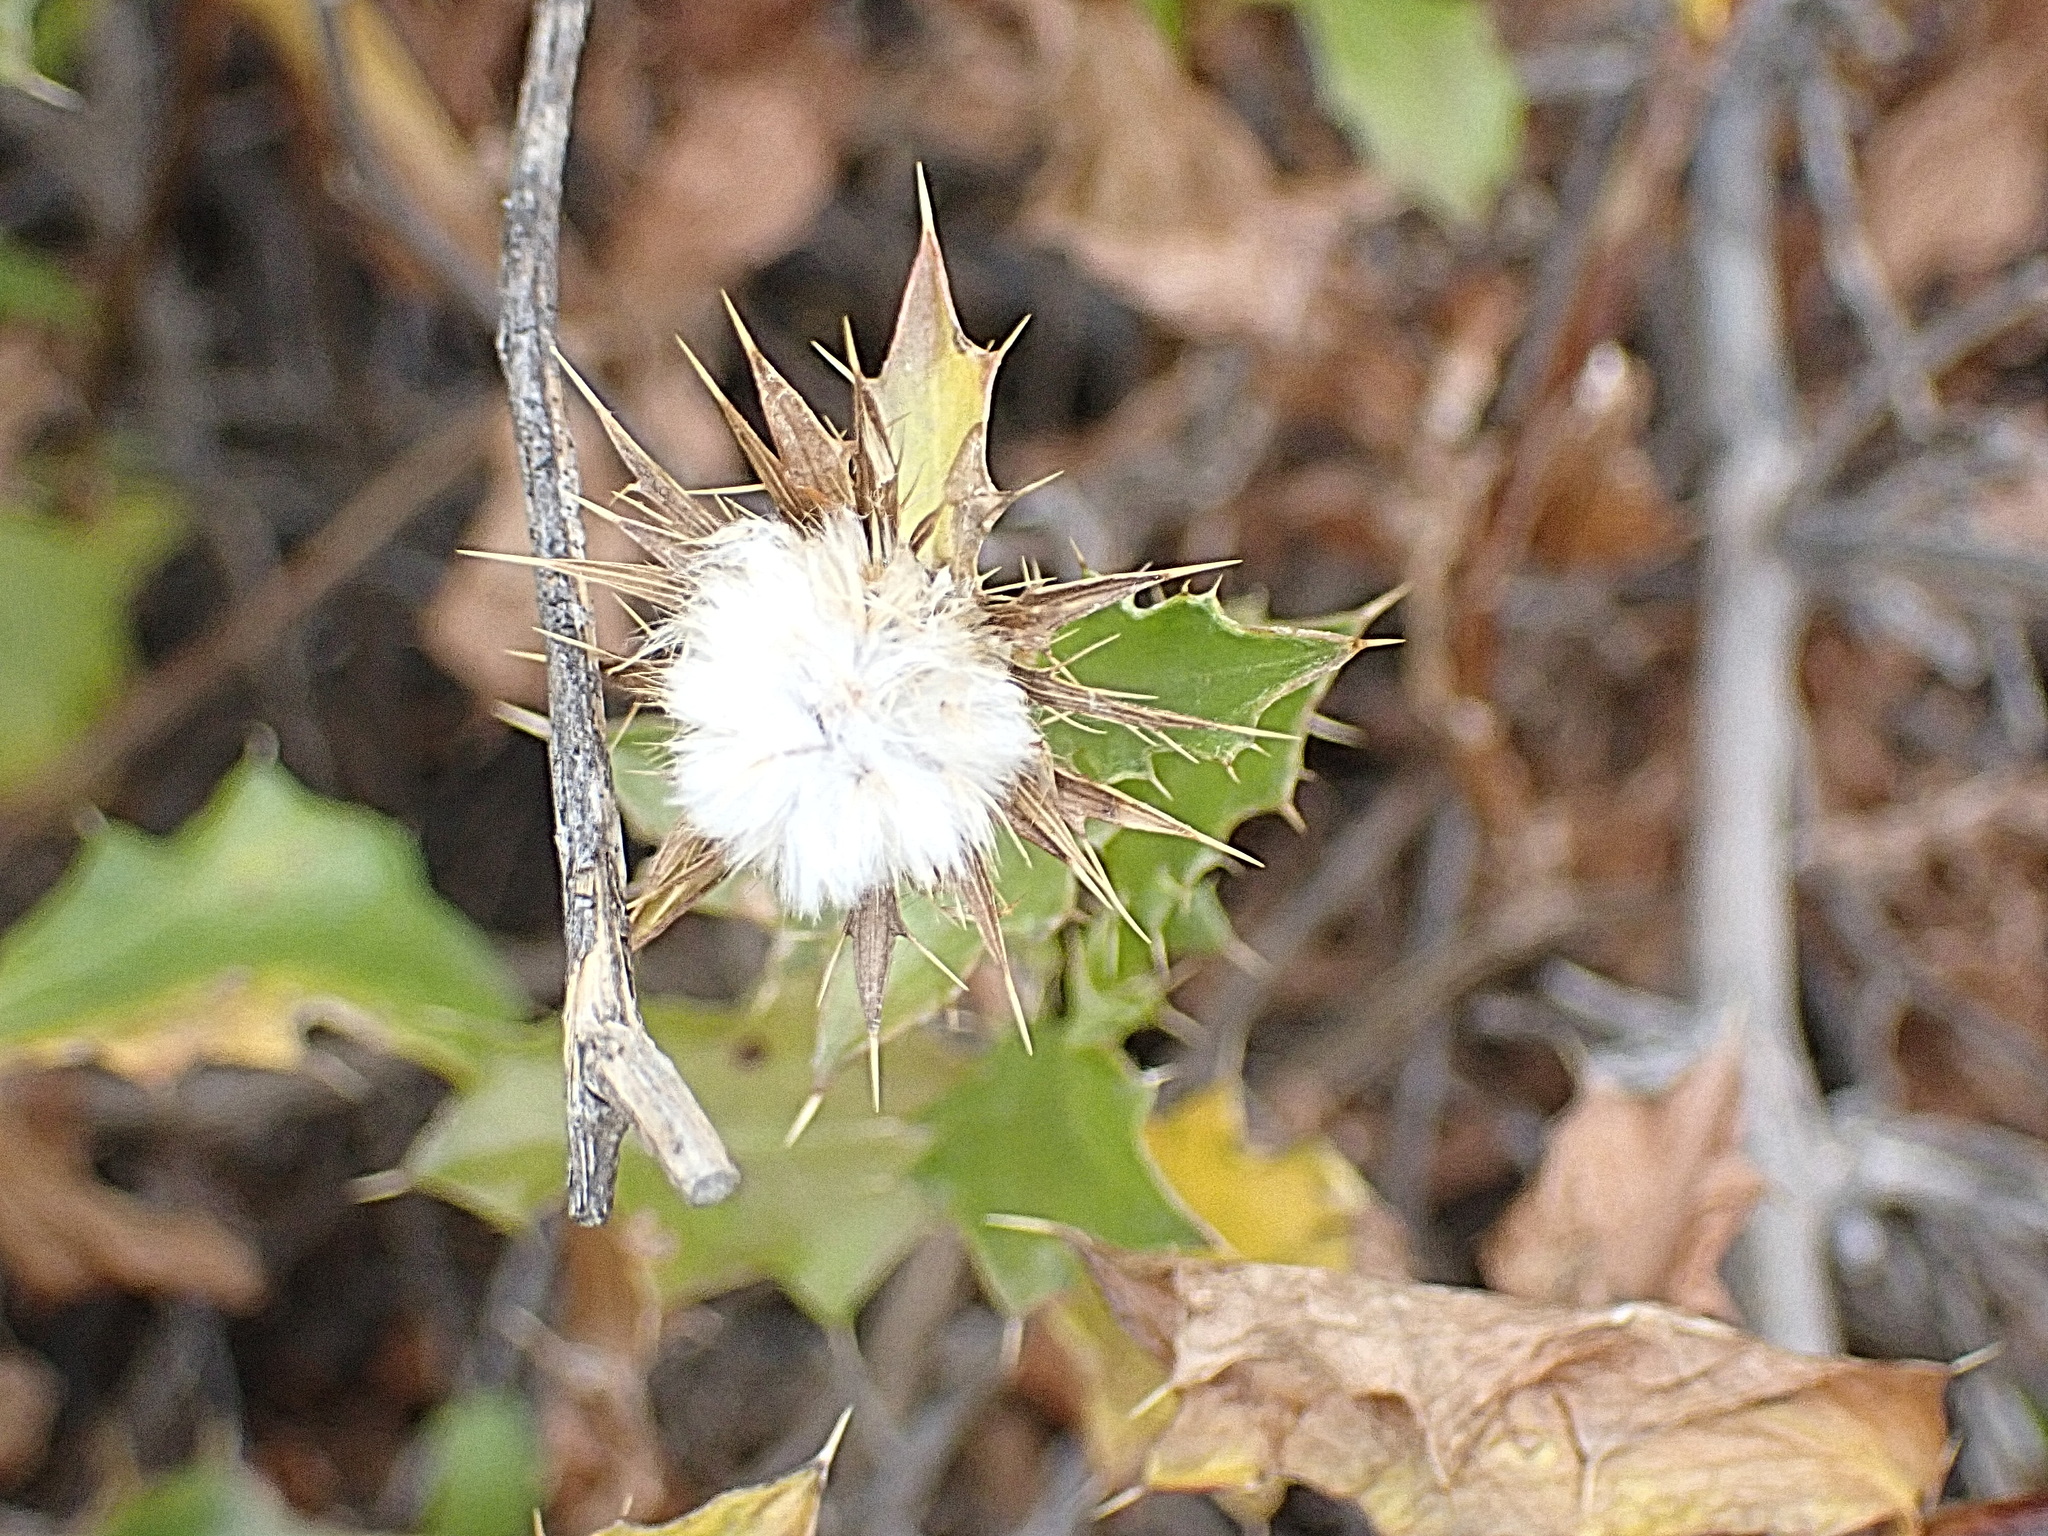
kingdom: Plantae
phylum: Tracheophyta
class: Magnoliopsida
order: Asterales
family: Asteraceae
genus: Berkheya
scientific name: Berkheya spinosa
